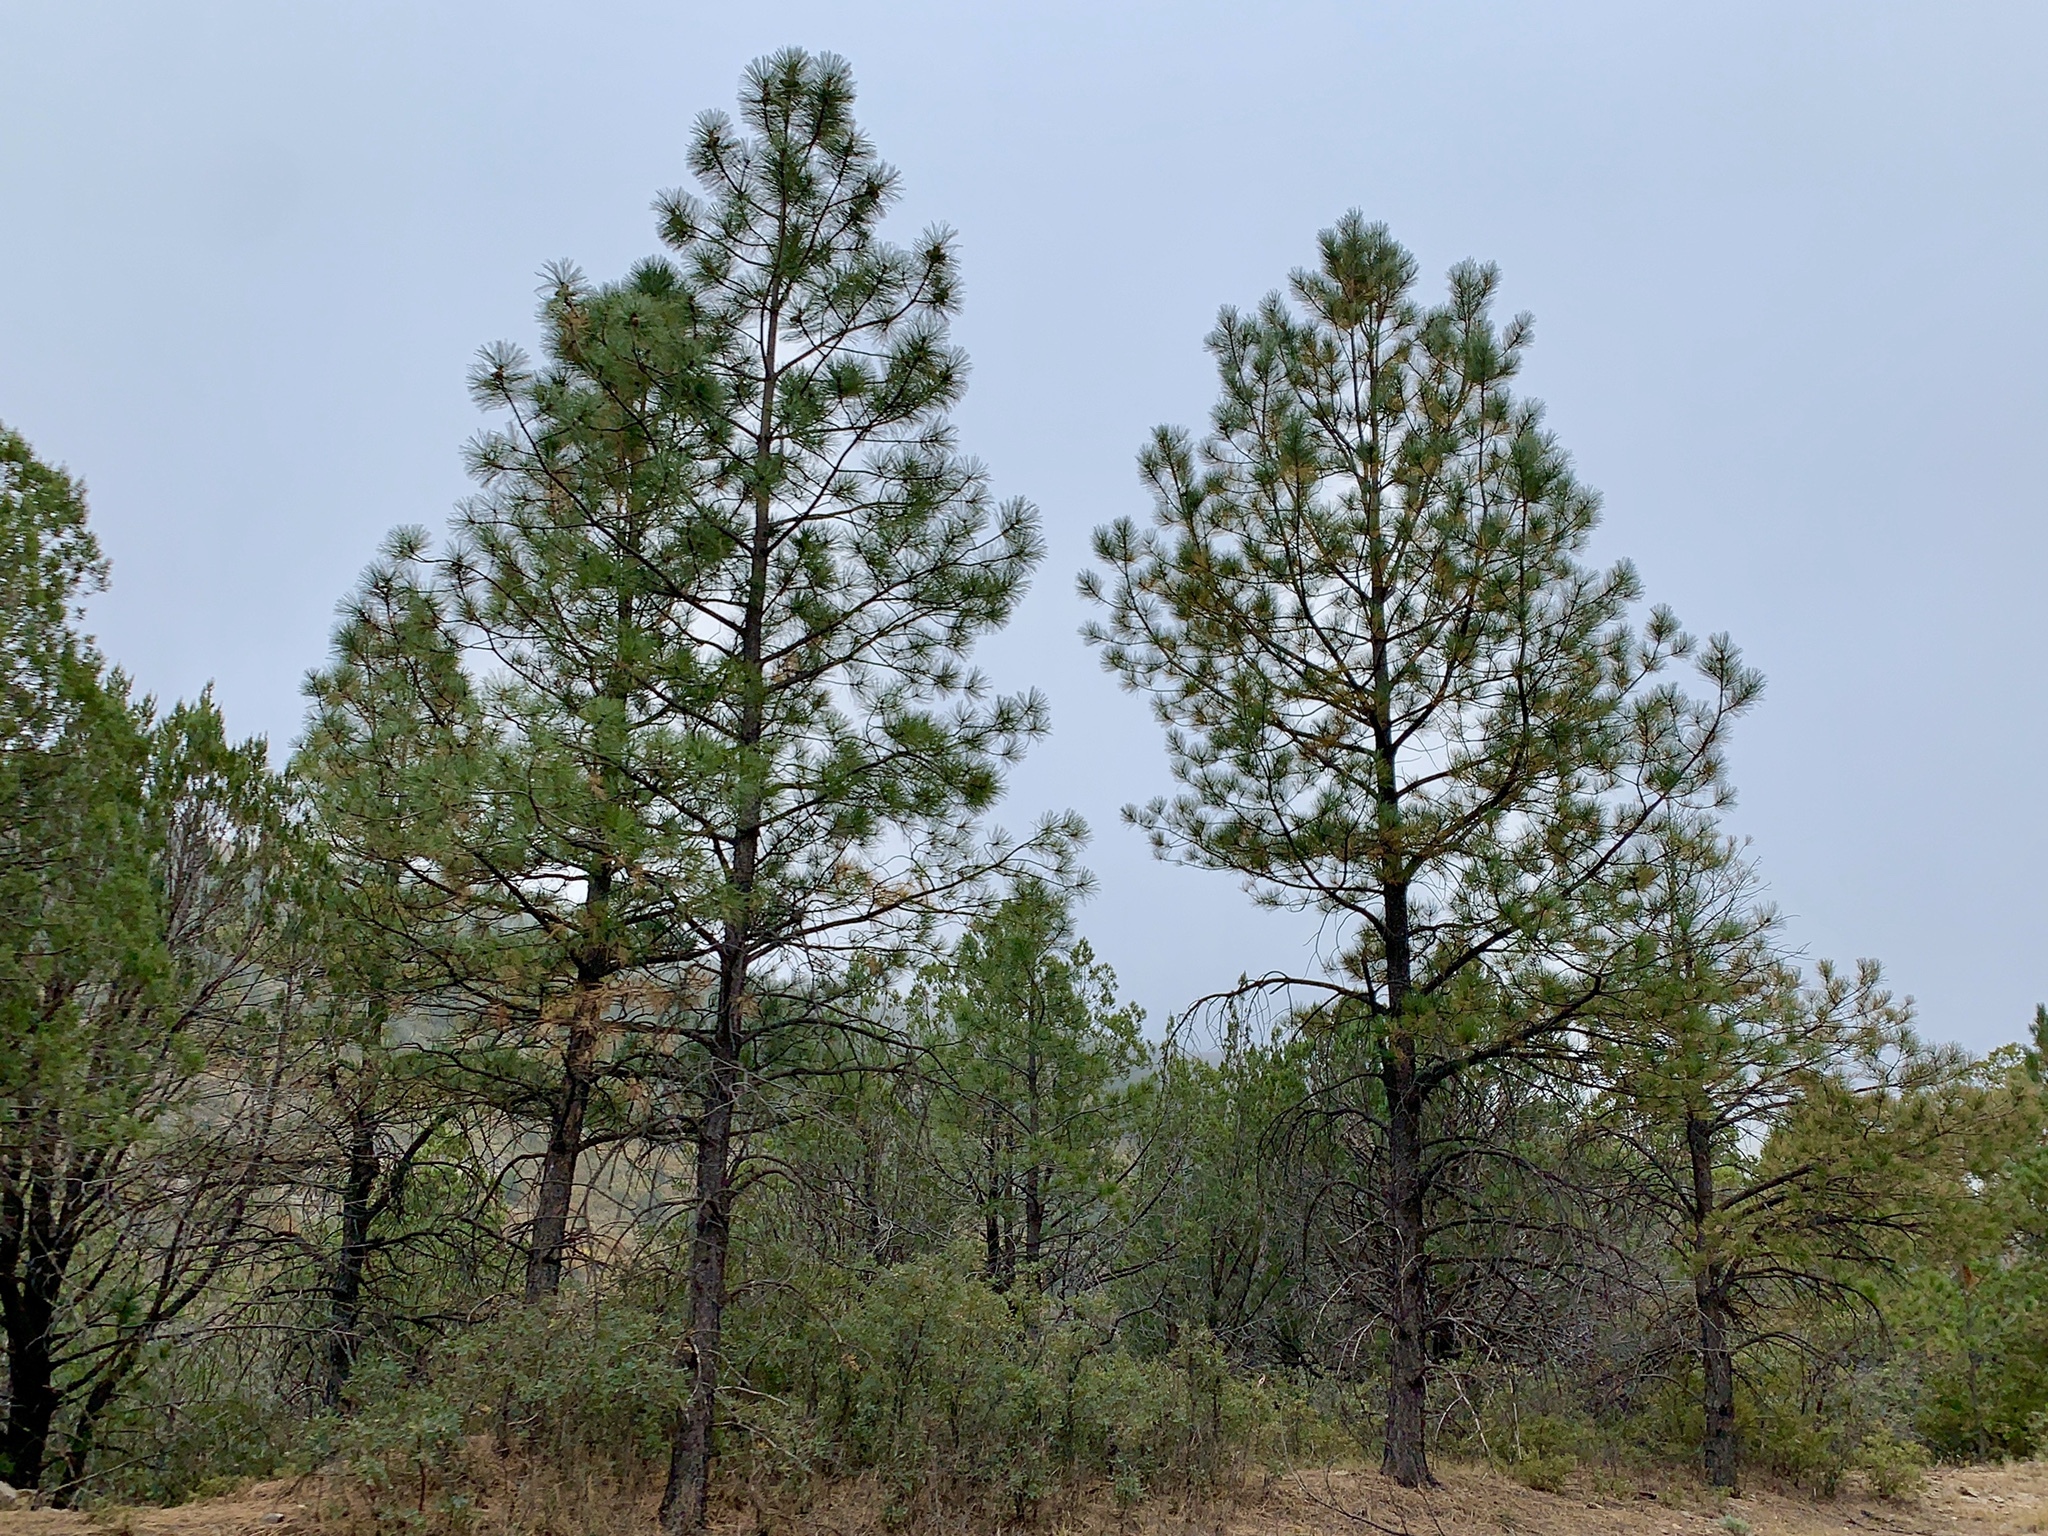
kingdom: Plantae
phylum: Tracheophyta
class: Pinopsida
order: Pinales
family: Pinaceae
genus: Pinus
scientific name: Pinus ponderosa
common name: Western yellow-pine
